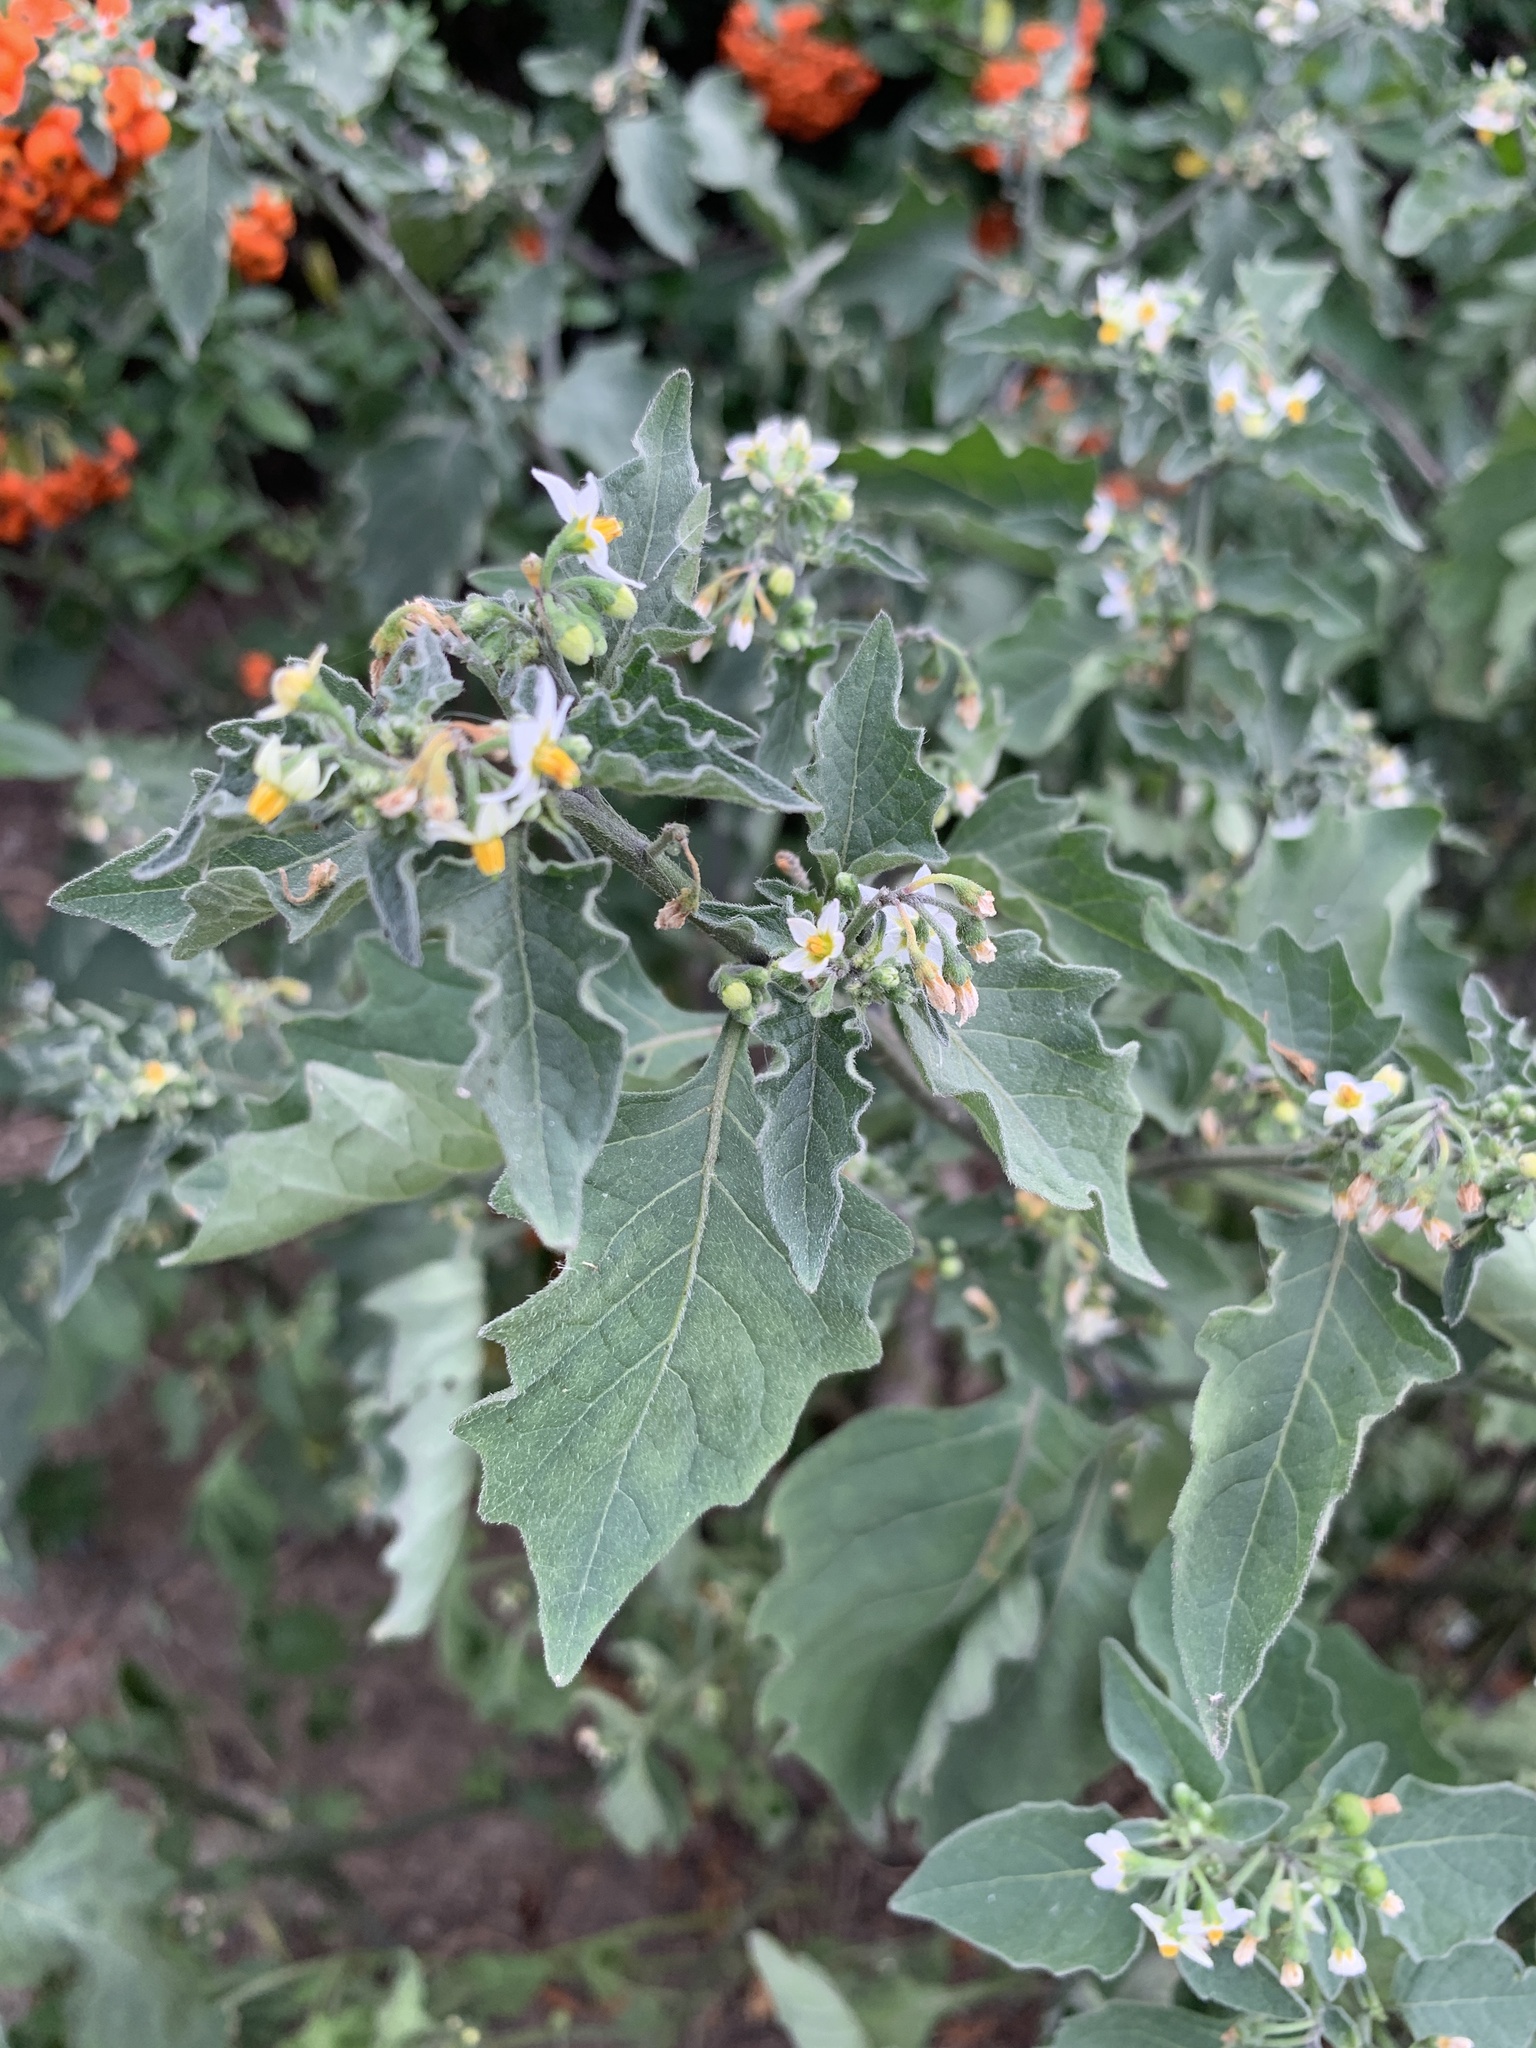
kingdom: Plantae
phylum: Tracheophyta
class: Magnoliopsida
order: Solanales
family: Solanaceae
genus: Solanum
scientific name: Solanum nigrum
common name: Black nightshade
